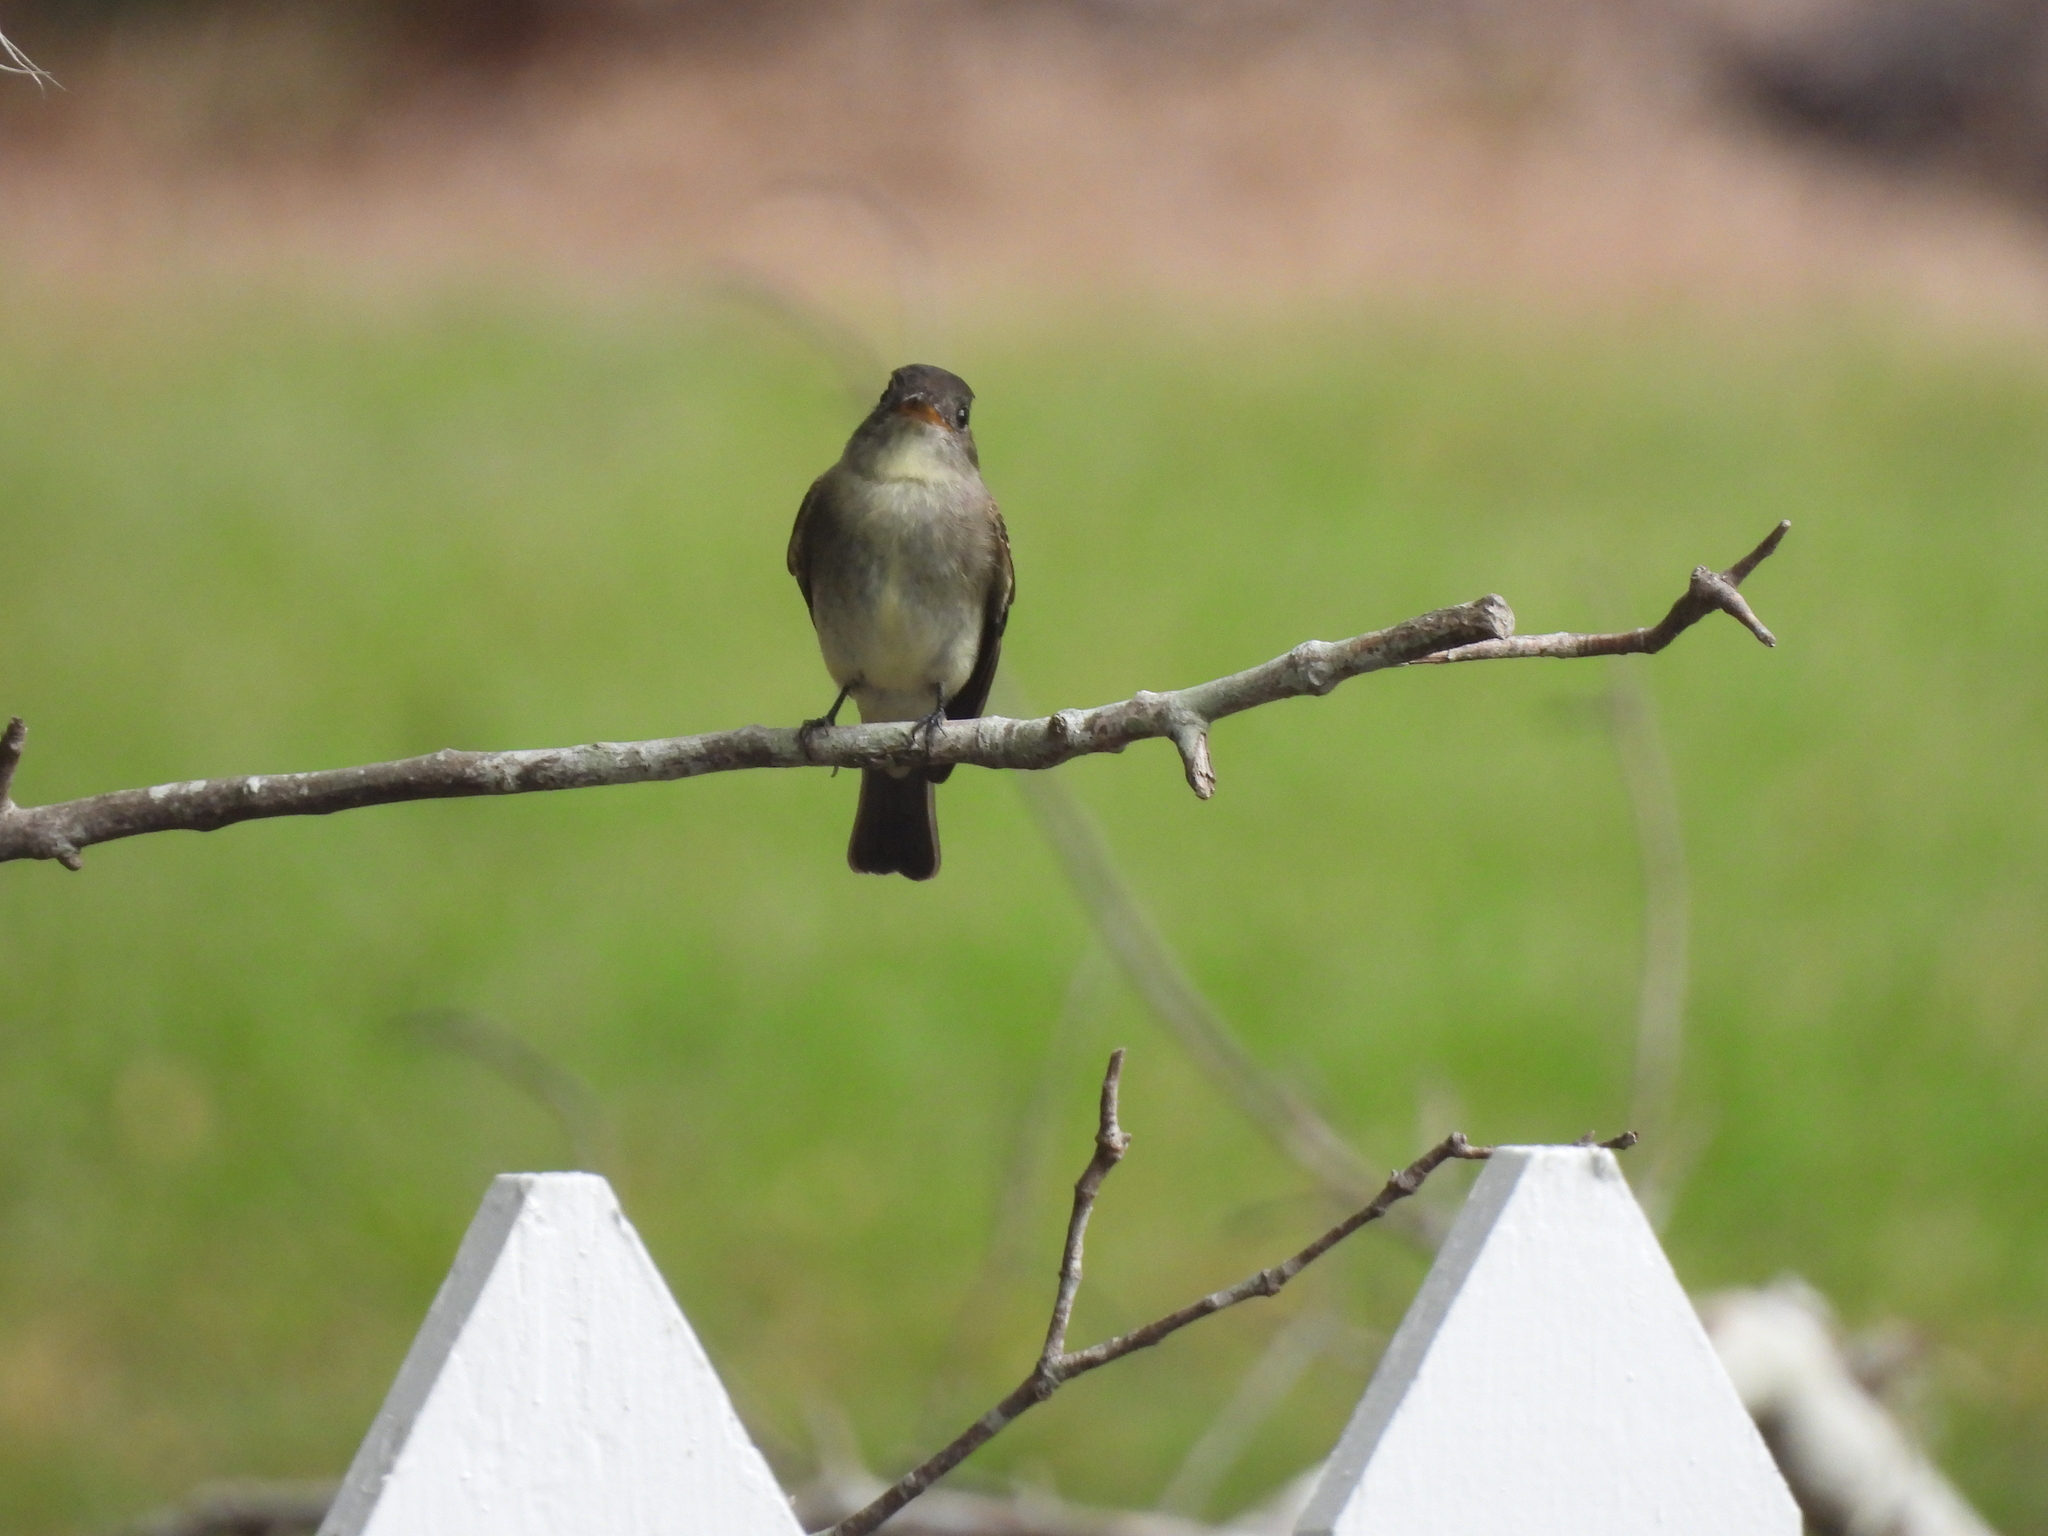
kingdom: Animalia
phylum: Chordata
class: Aves
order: Passeriformes
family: Tyrannidae
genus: Contopus
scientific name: Contopus virens
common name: Eastern wood-pewee
